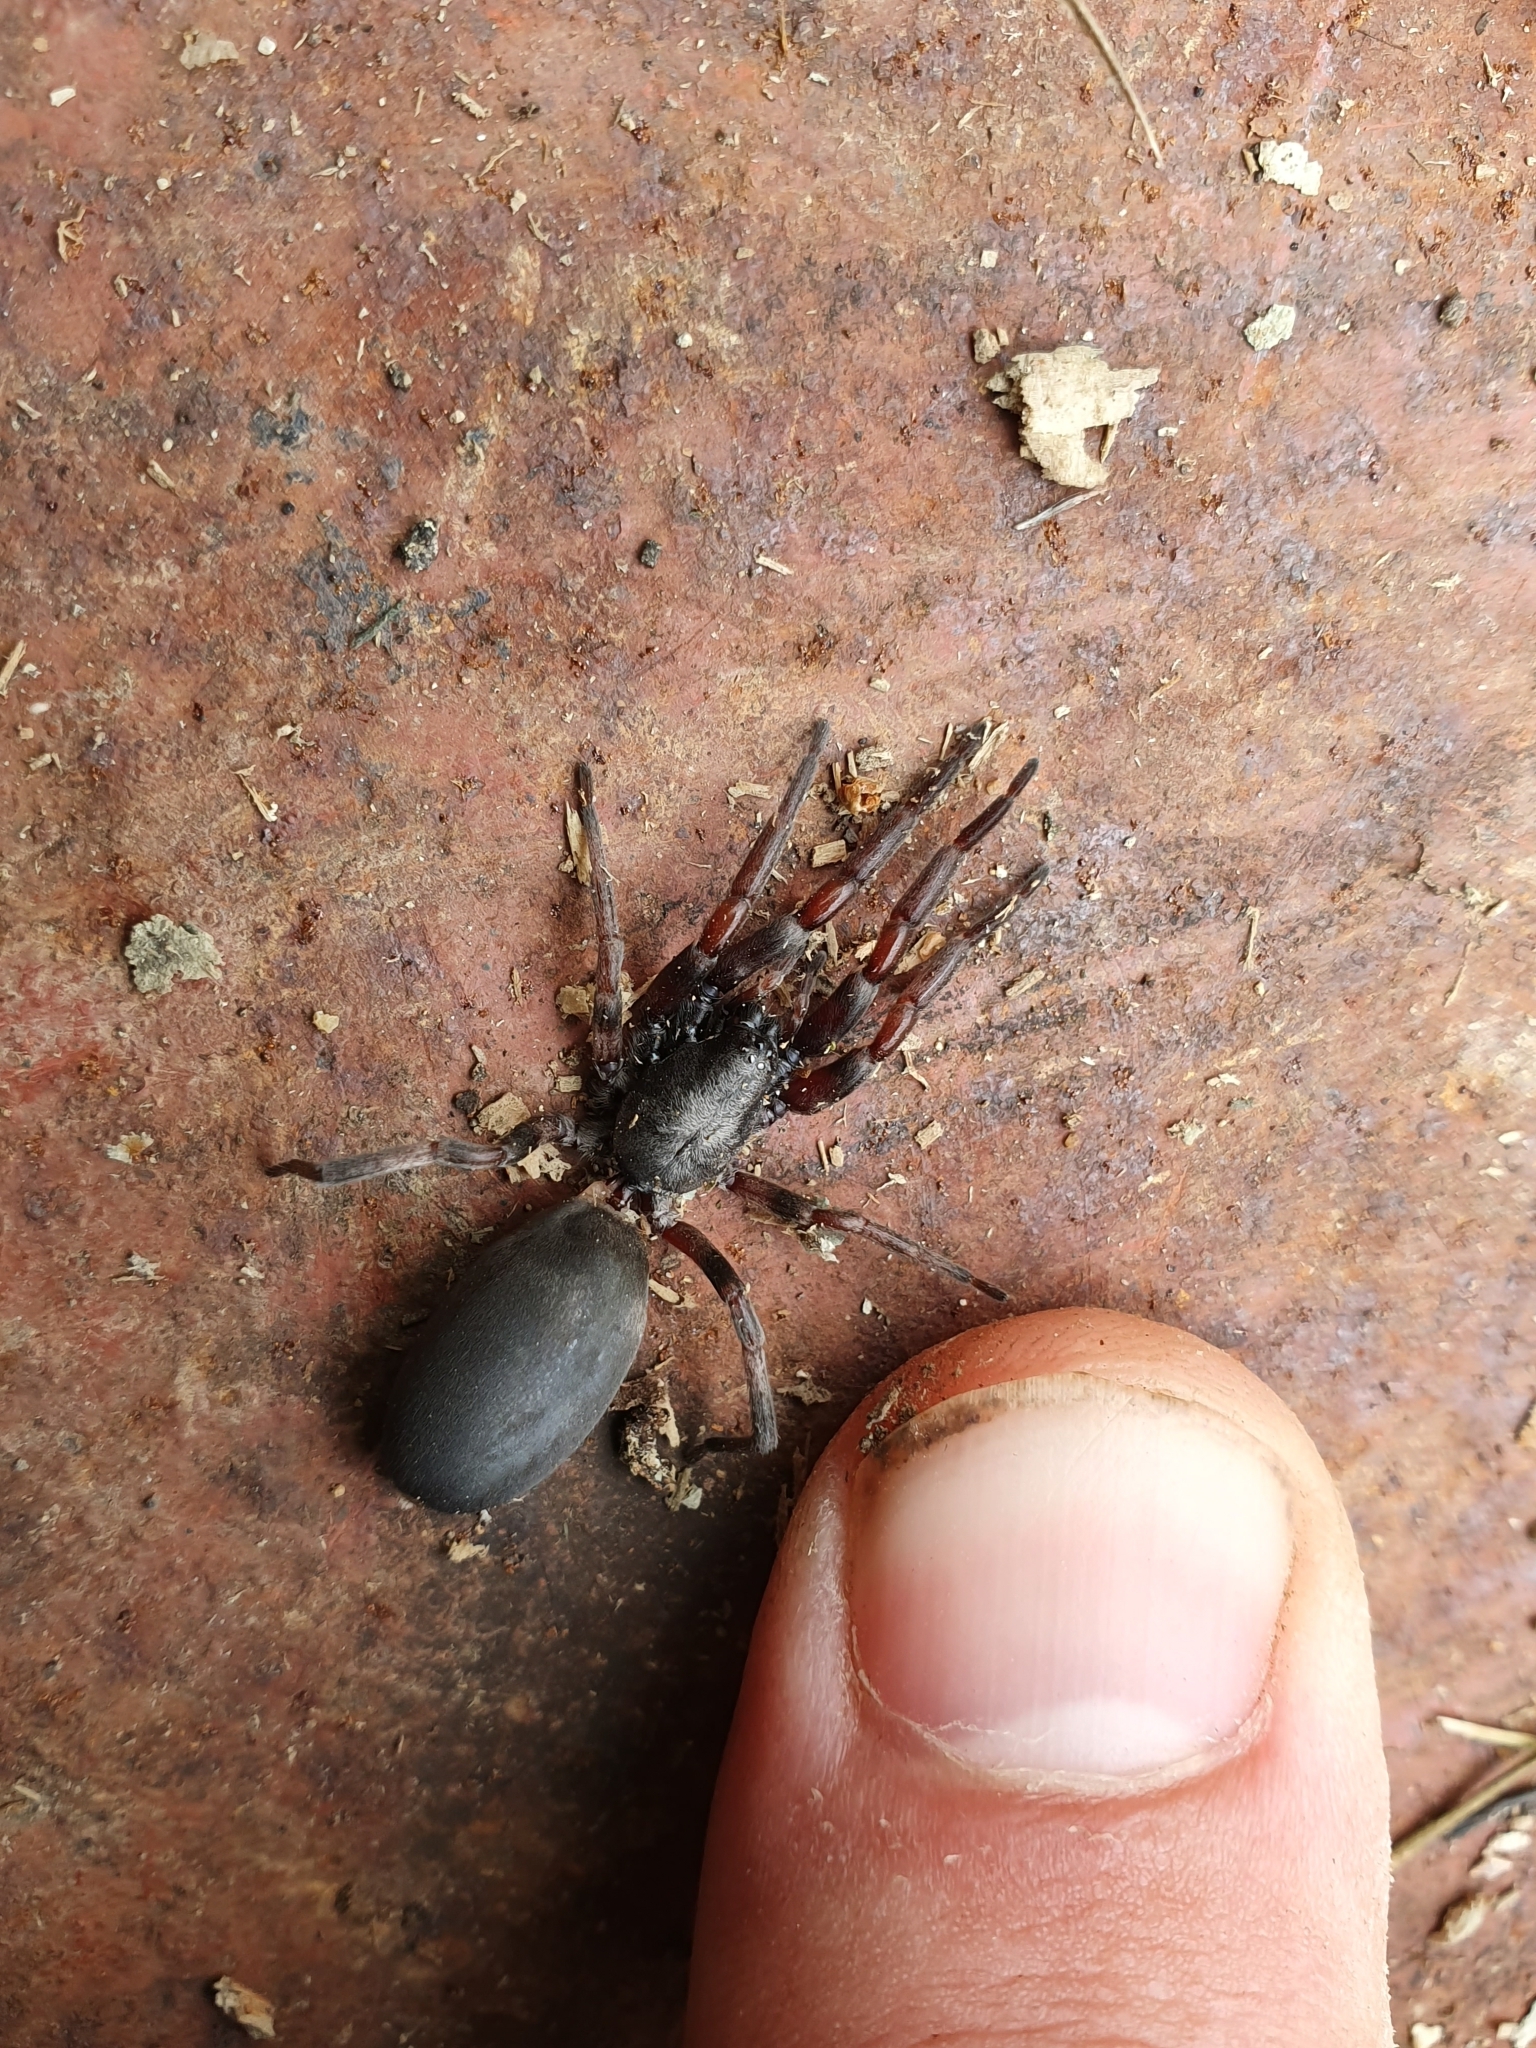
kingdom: Animalia
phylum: Arthropoda
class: Arachnida
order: Araneae
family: Lamponidae
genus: Lampona
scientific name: Lampona murina
